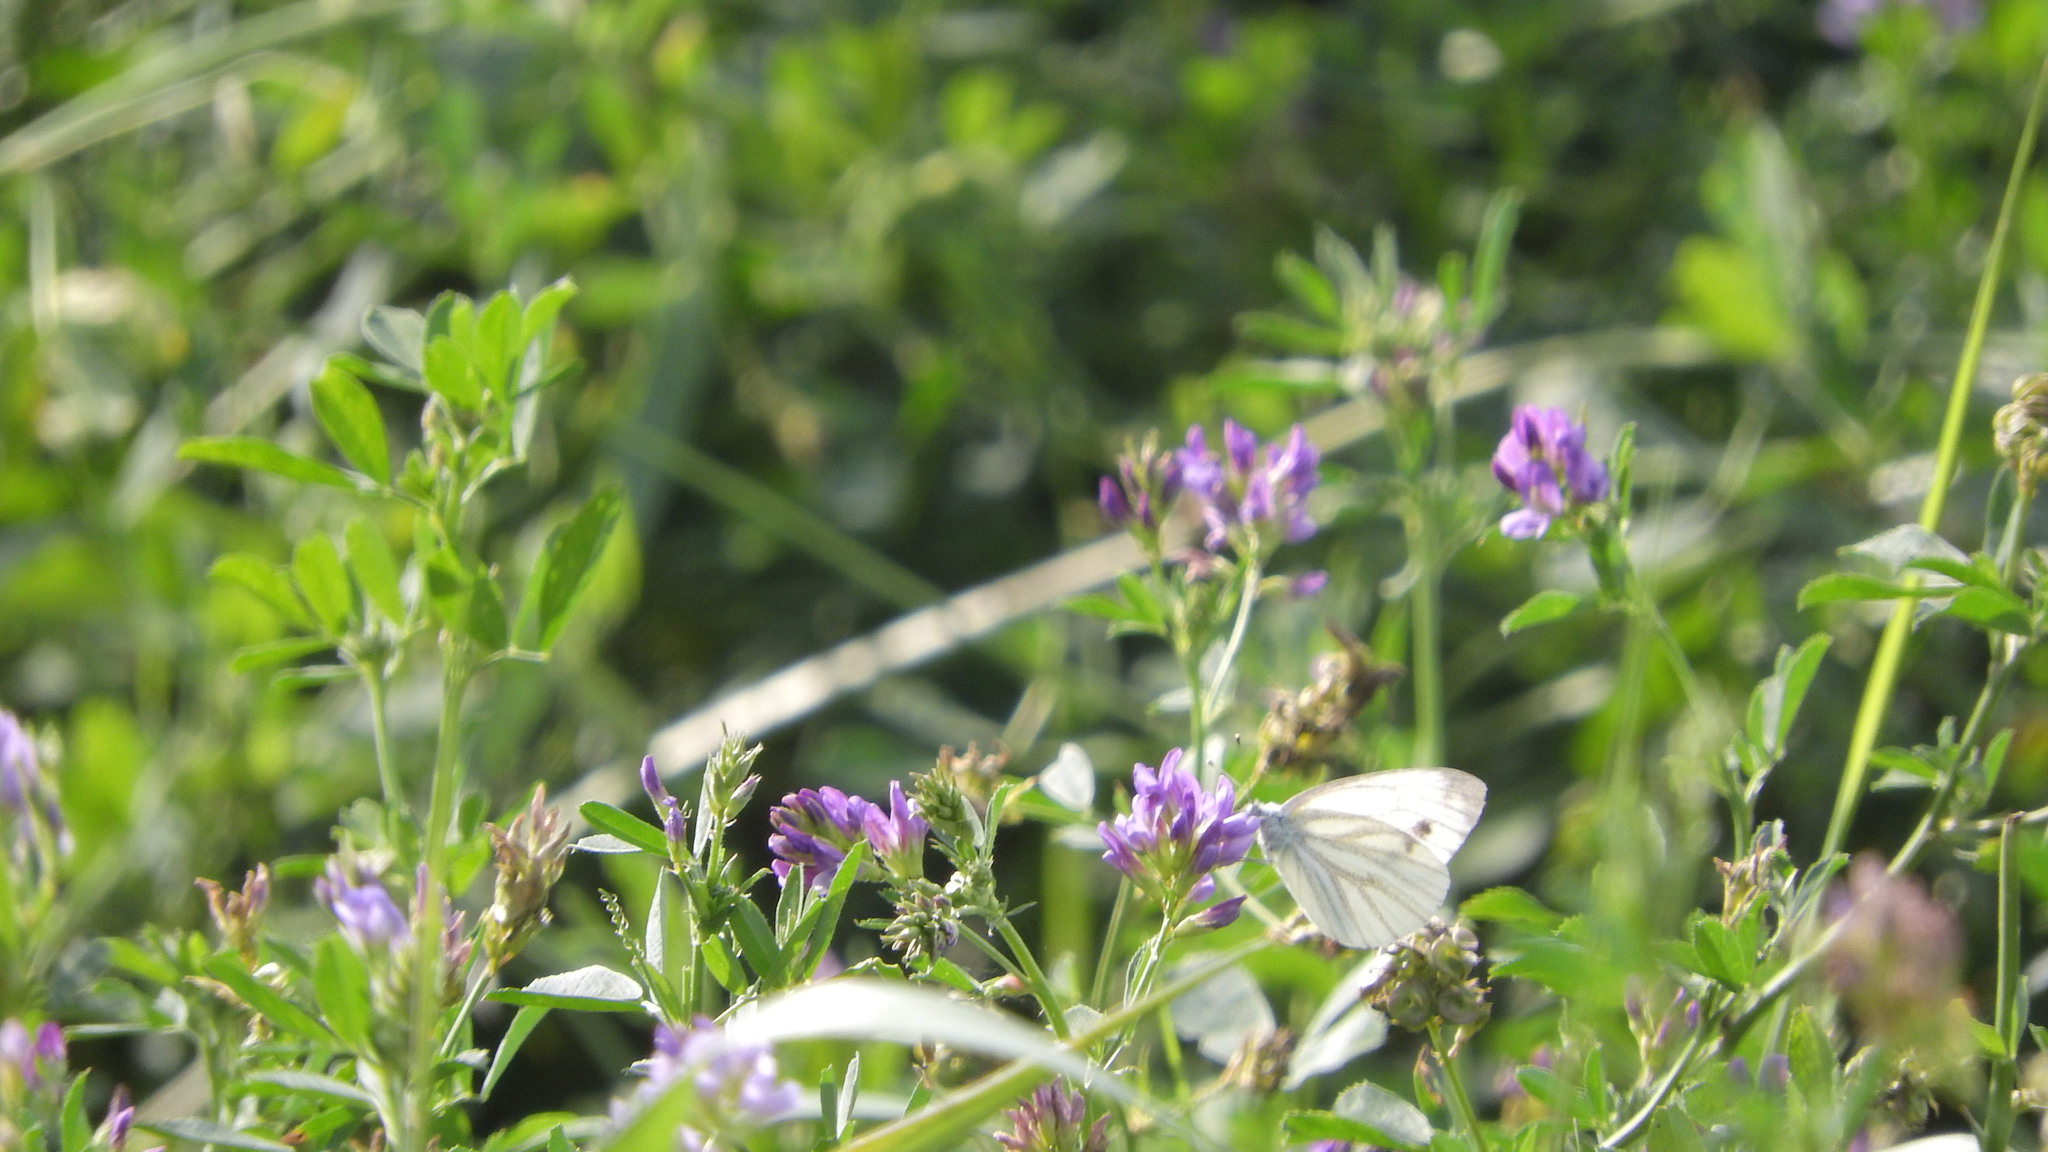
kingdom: Animalia
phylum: Arthropoda
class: Insecta
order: Lepidoptera
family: Pieridae
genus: Pieris
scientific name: Pieris napi
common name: Green-veined white
